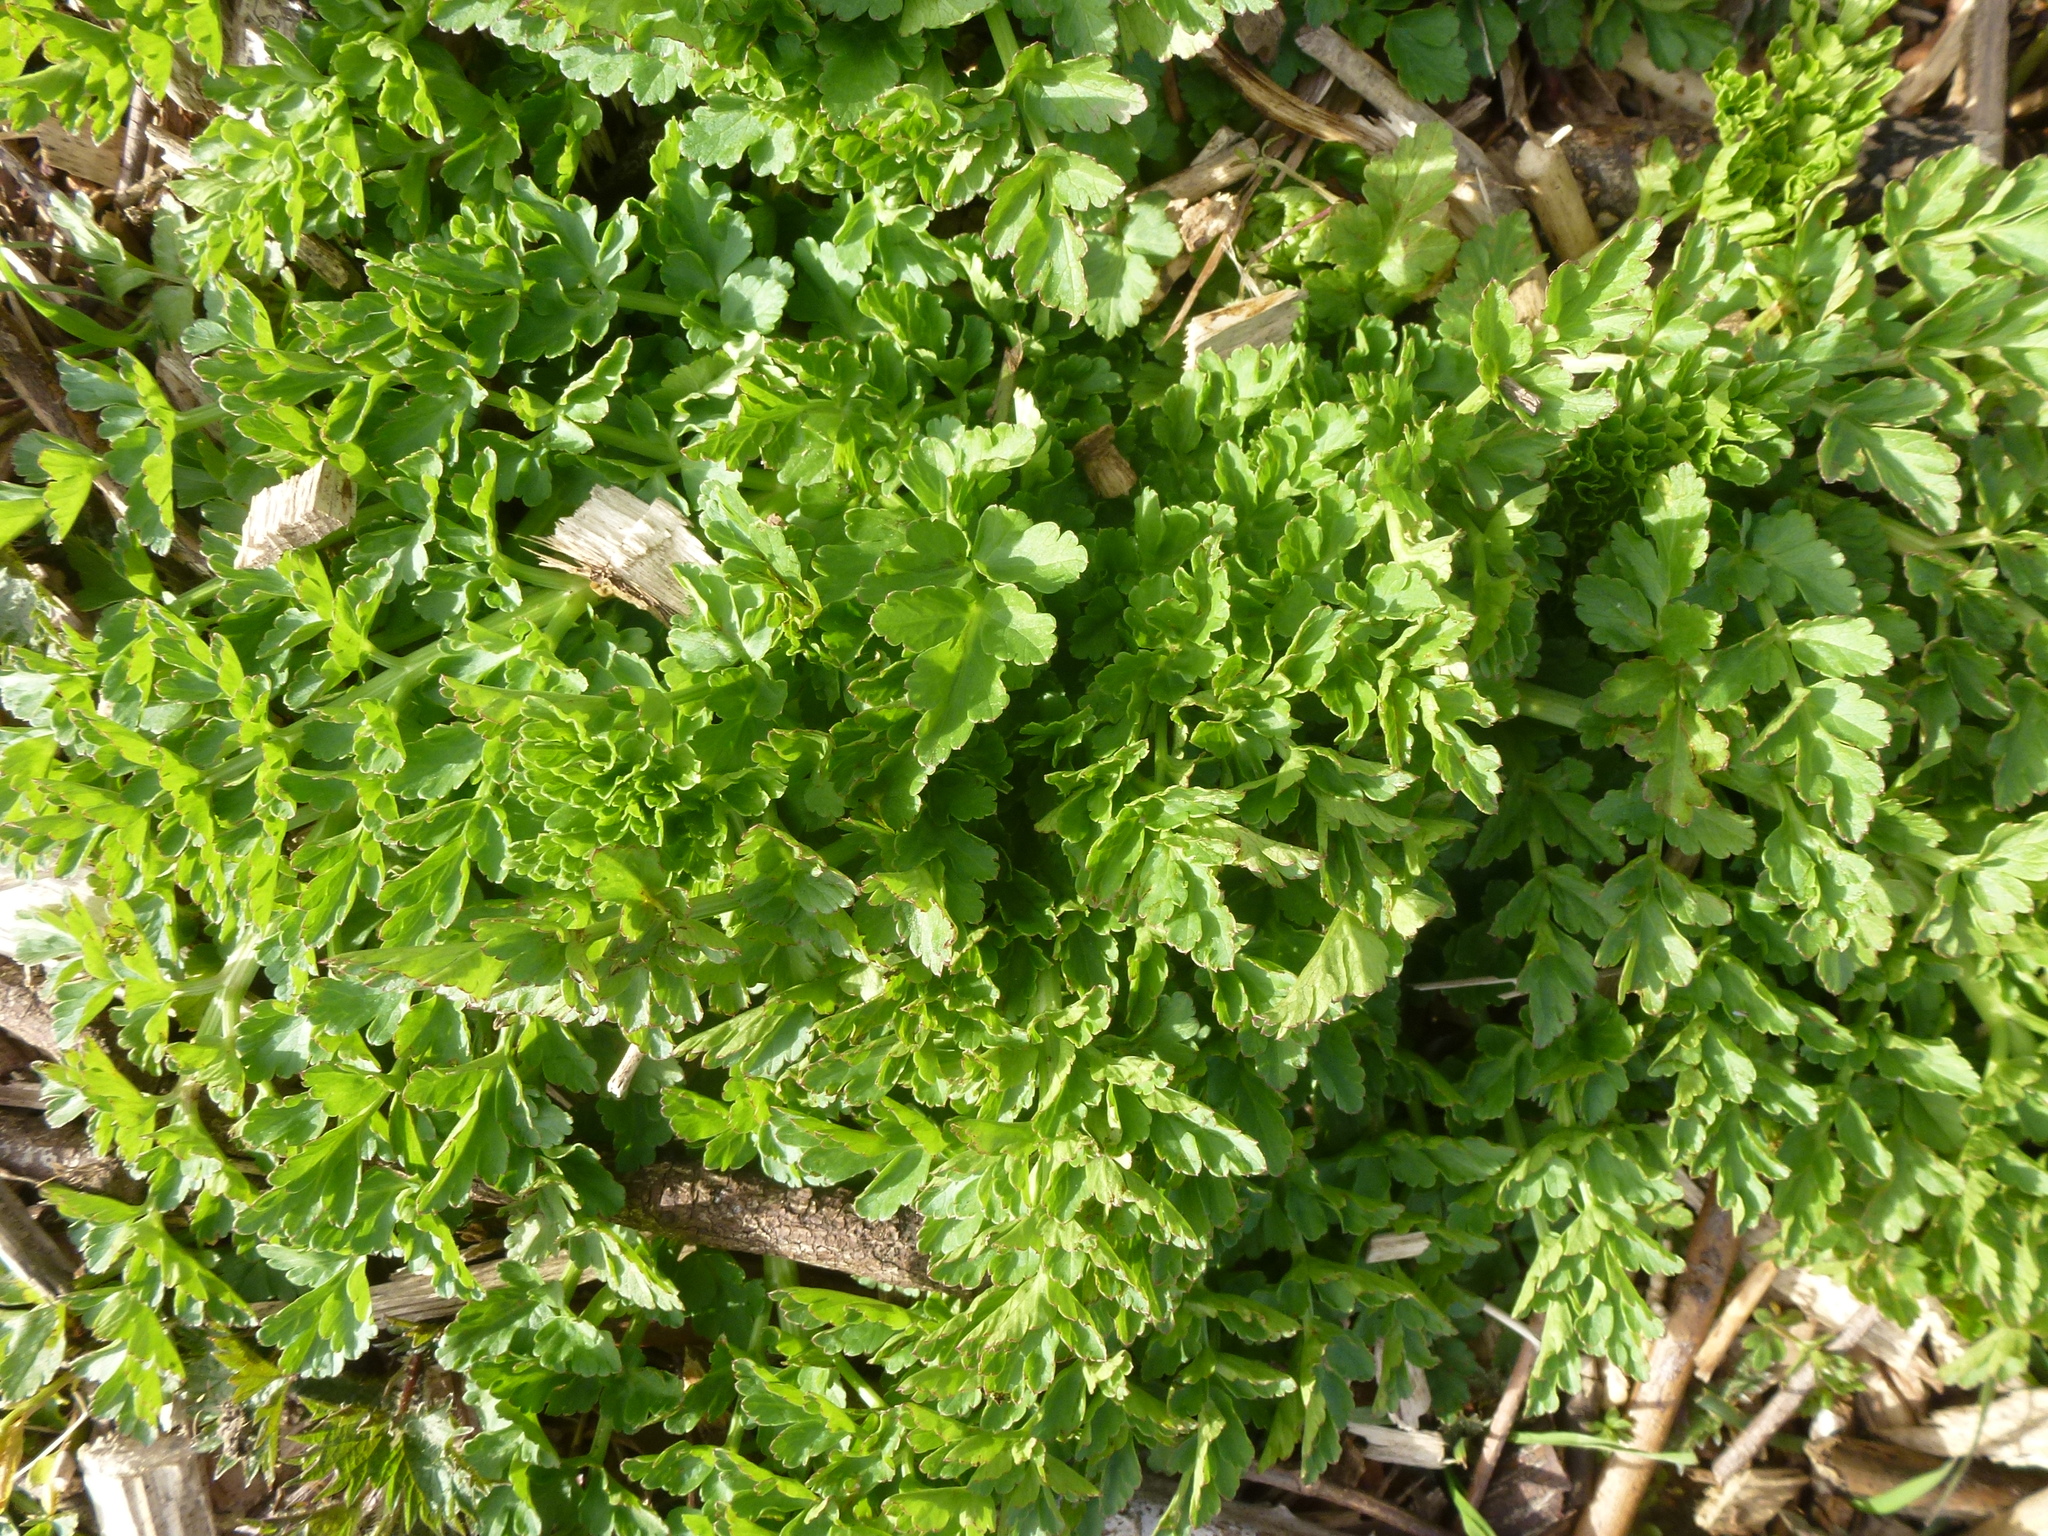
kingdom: Plantae
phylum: Tracheophyta
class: Magnoliopsida
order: Apiales
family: Apiaceae
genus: Oenanthe
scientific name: Oenanthe crocata
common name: Hemlock water-dropwort
